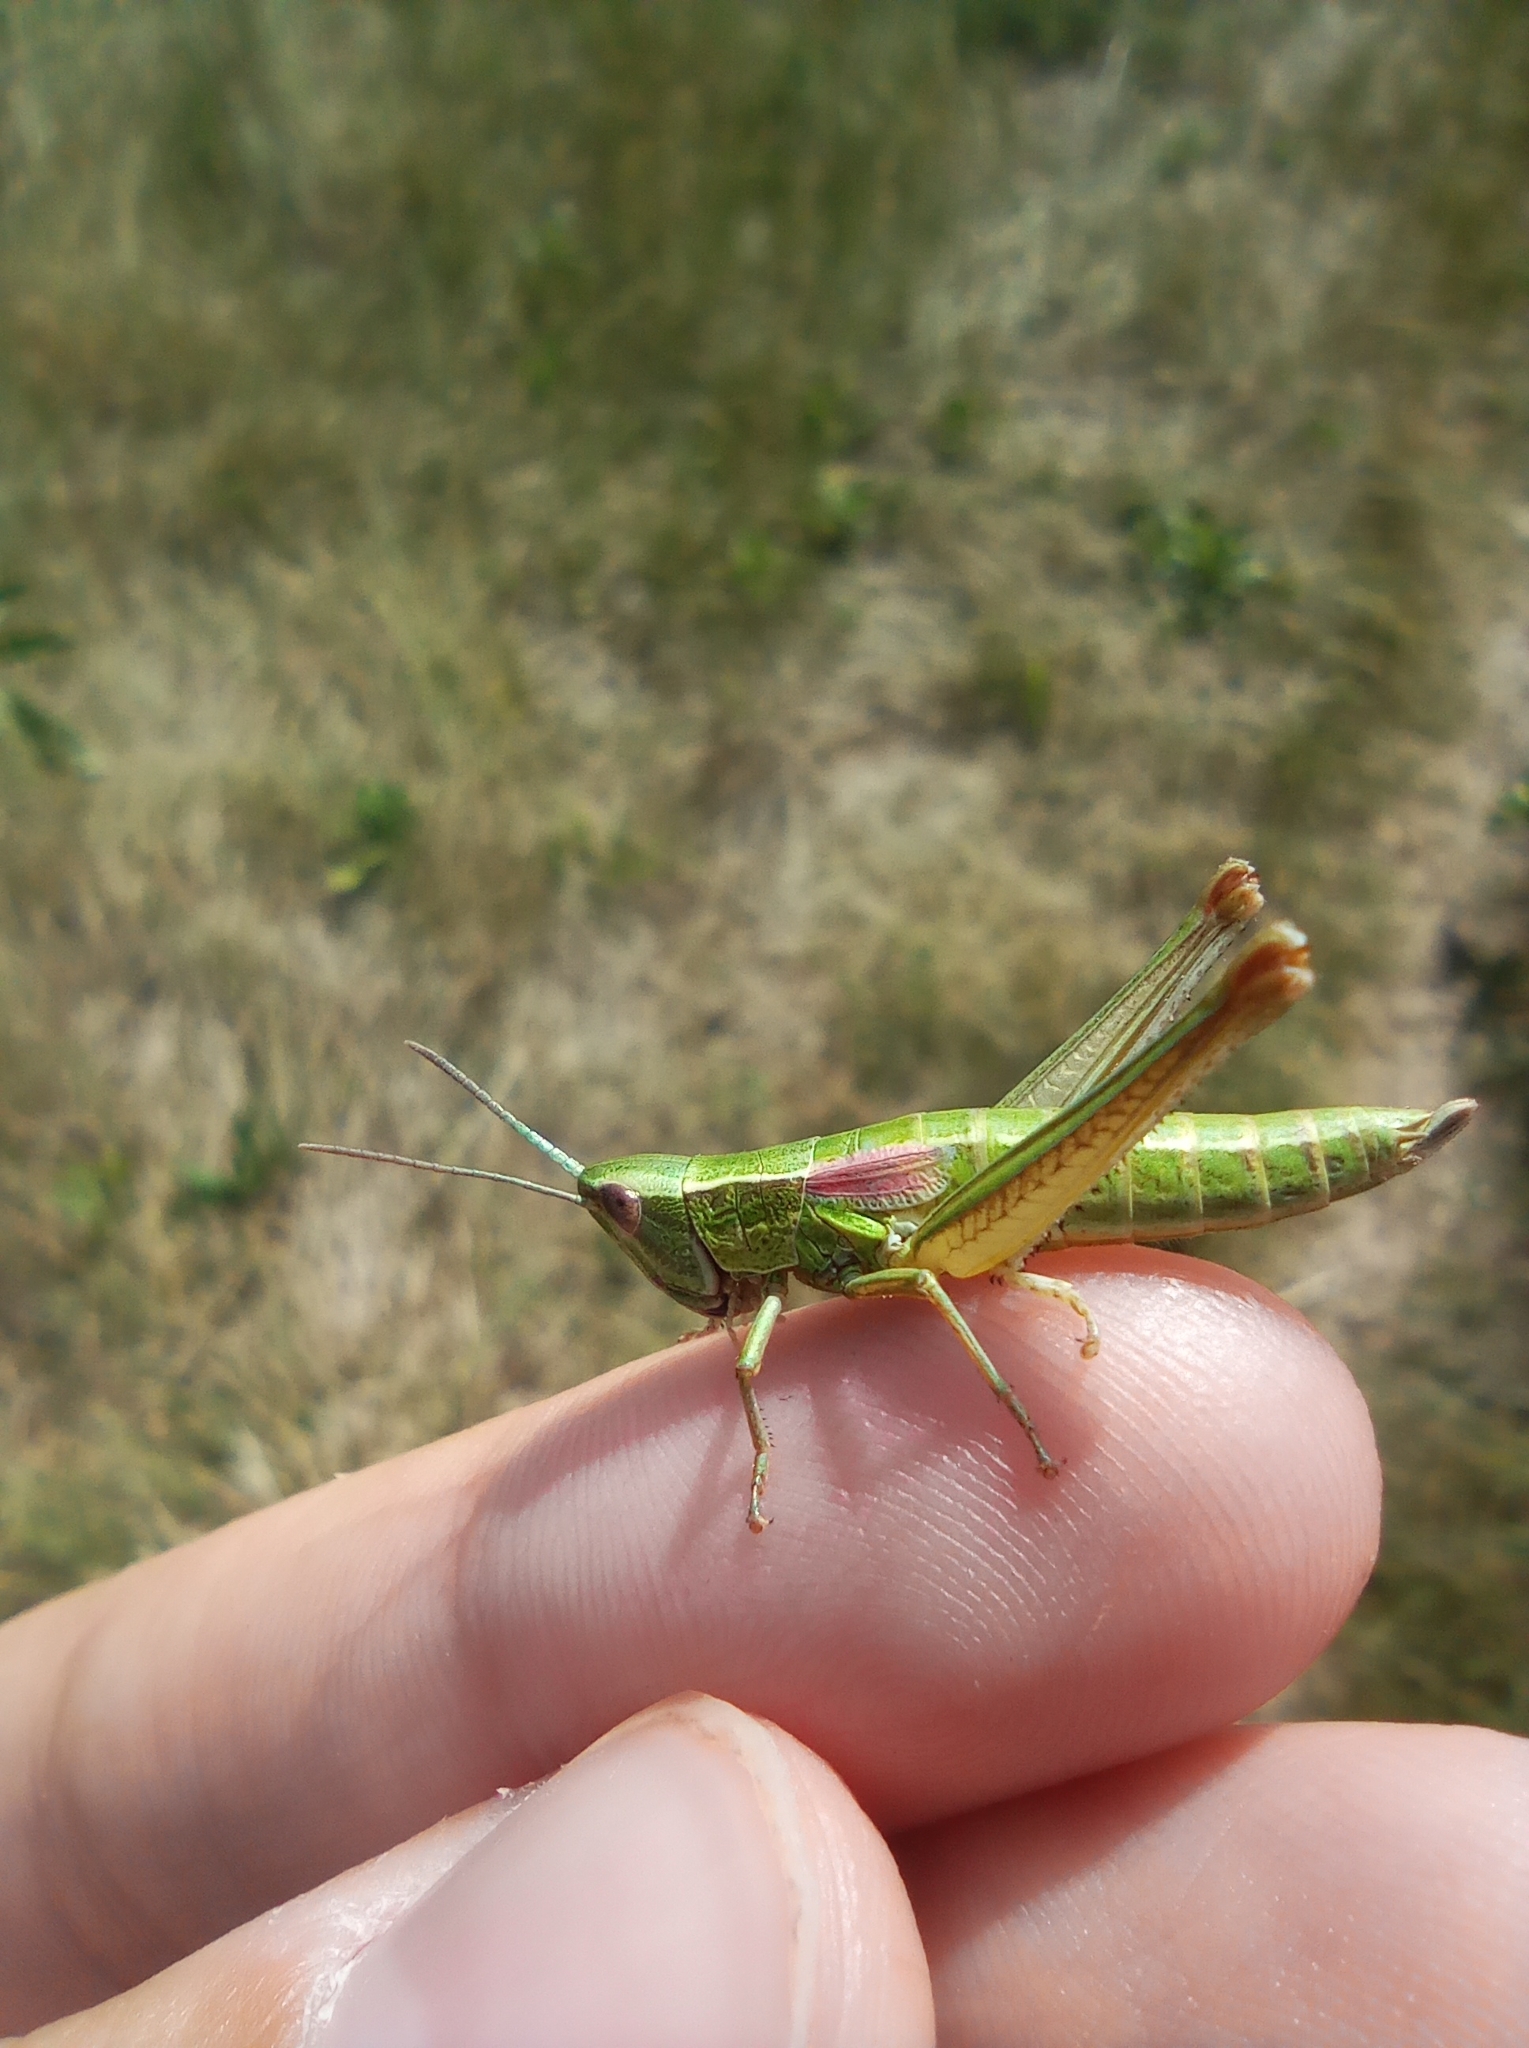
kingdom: Animalia
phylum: Arthropoda
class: Insecta
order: Orthoptera
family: Acrididae
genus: Euthystira
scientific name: Euthystira brachyptera
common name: Small gold grasshopper
